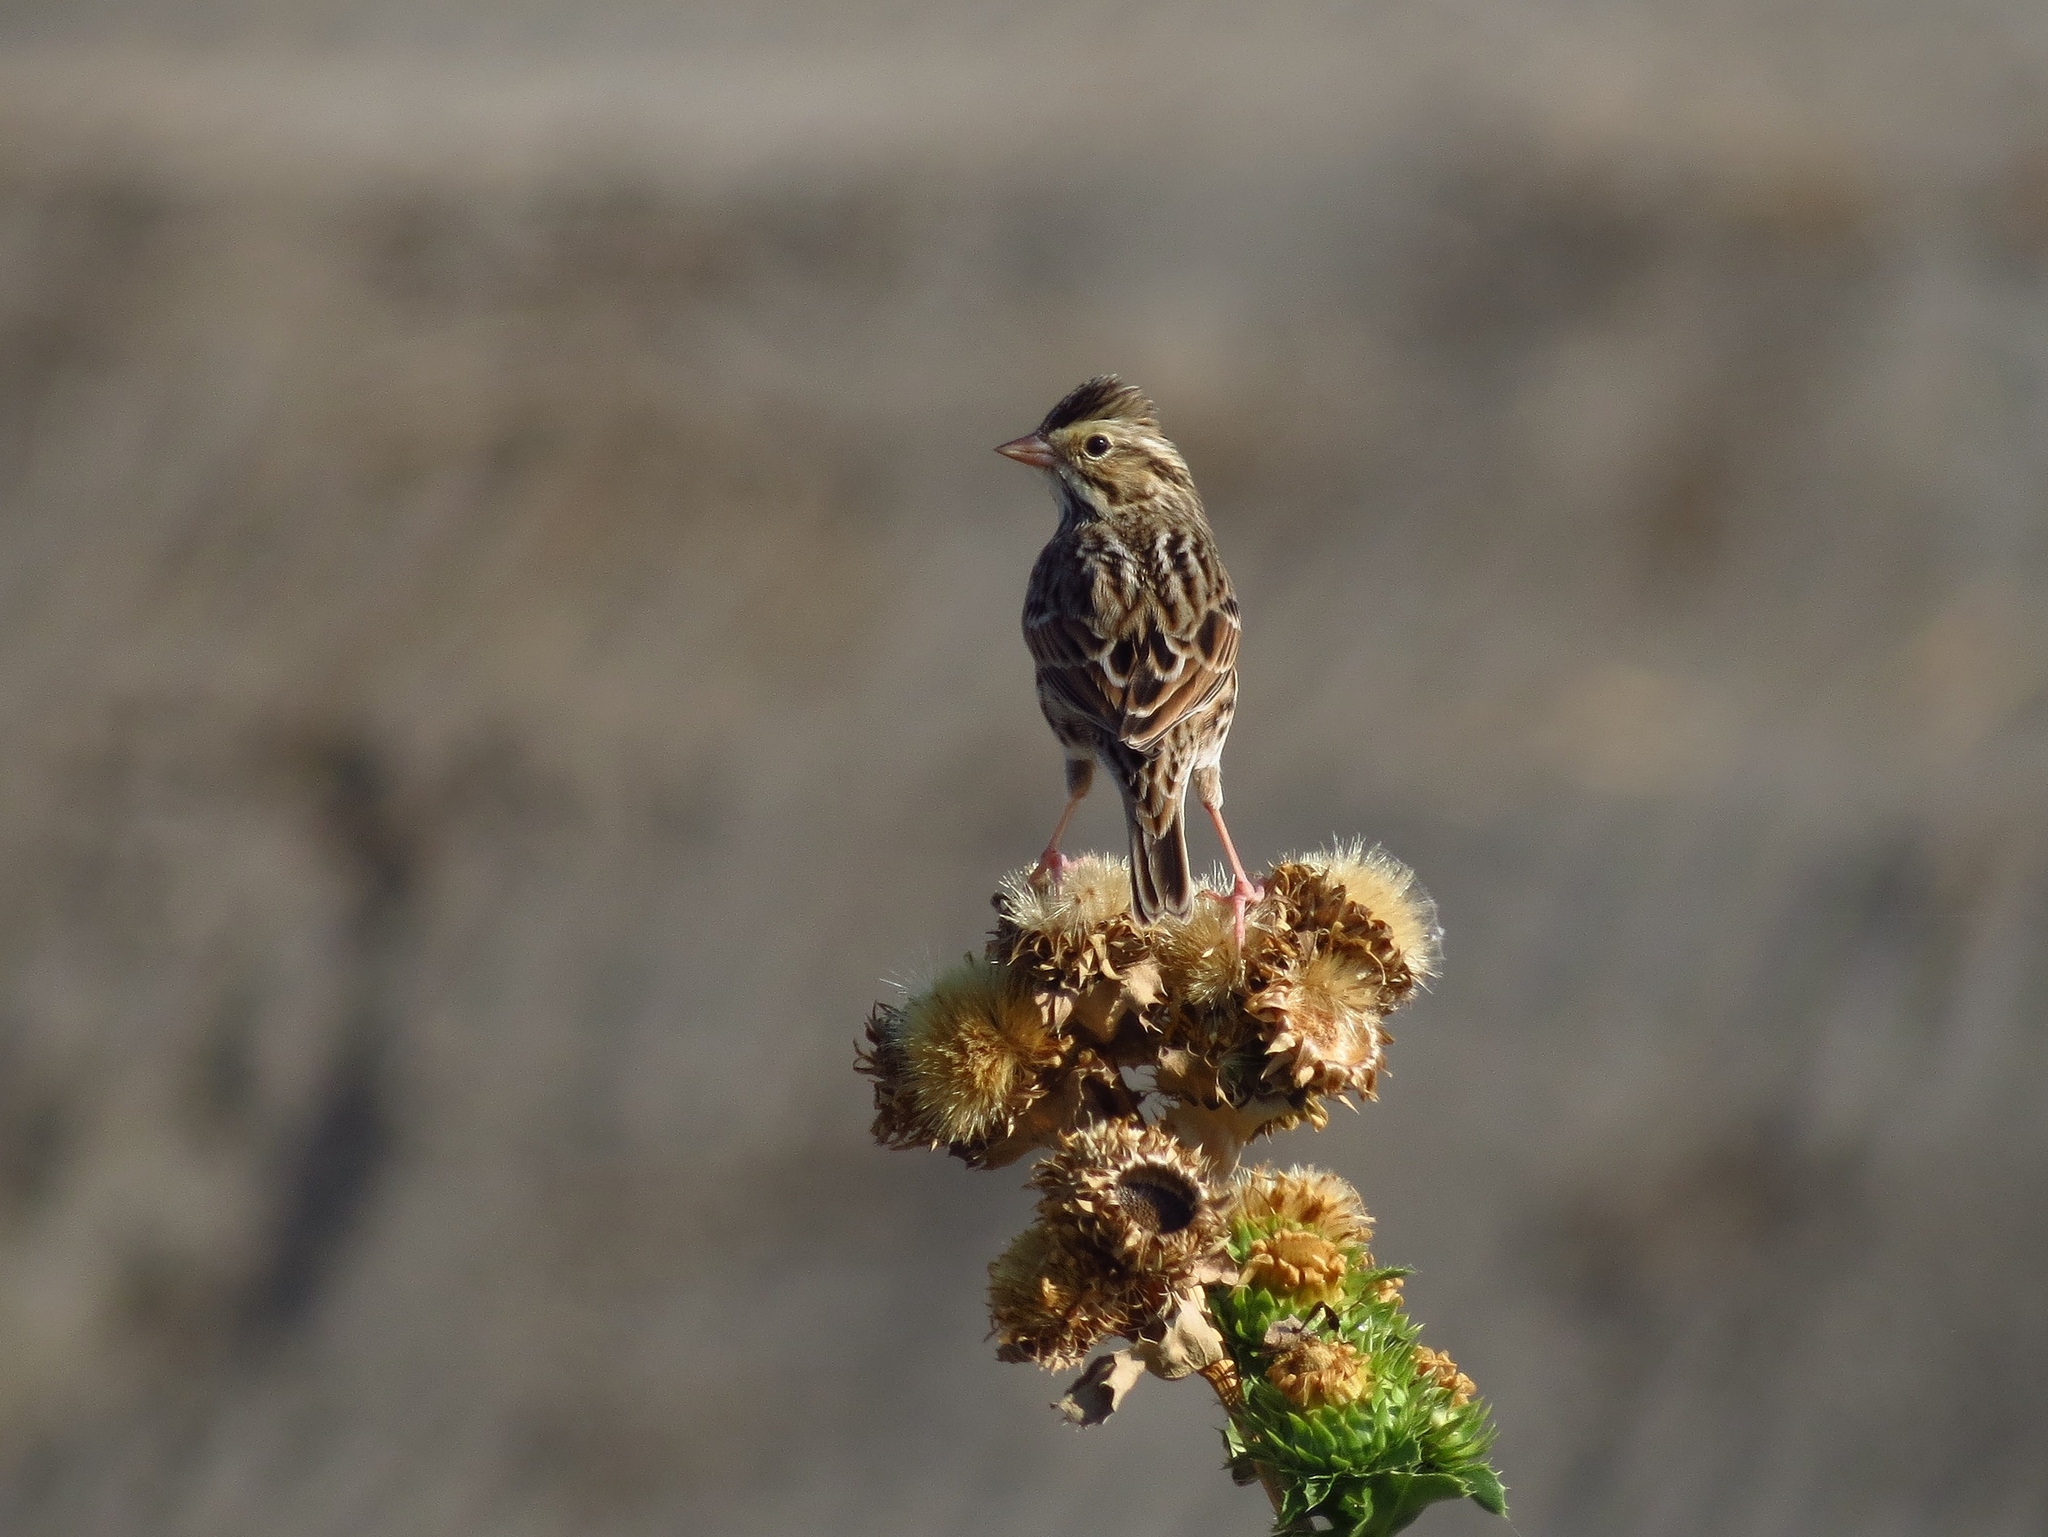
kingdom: Animalia
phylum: Chordata
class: Aves
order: Passeriformes
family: Passerellidae
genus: Passerculus
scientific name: Passerculus sandwichensis
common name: Savannah sparrow
